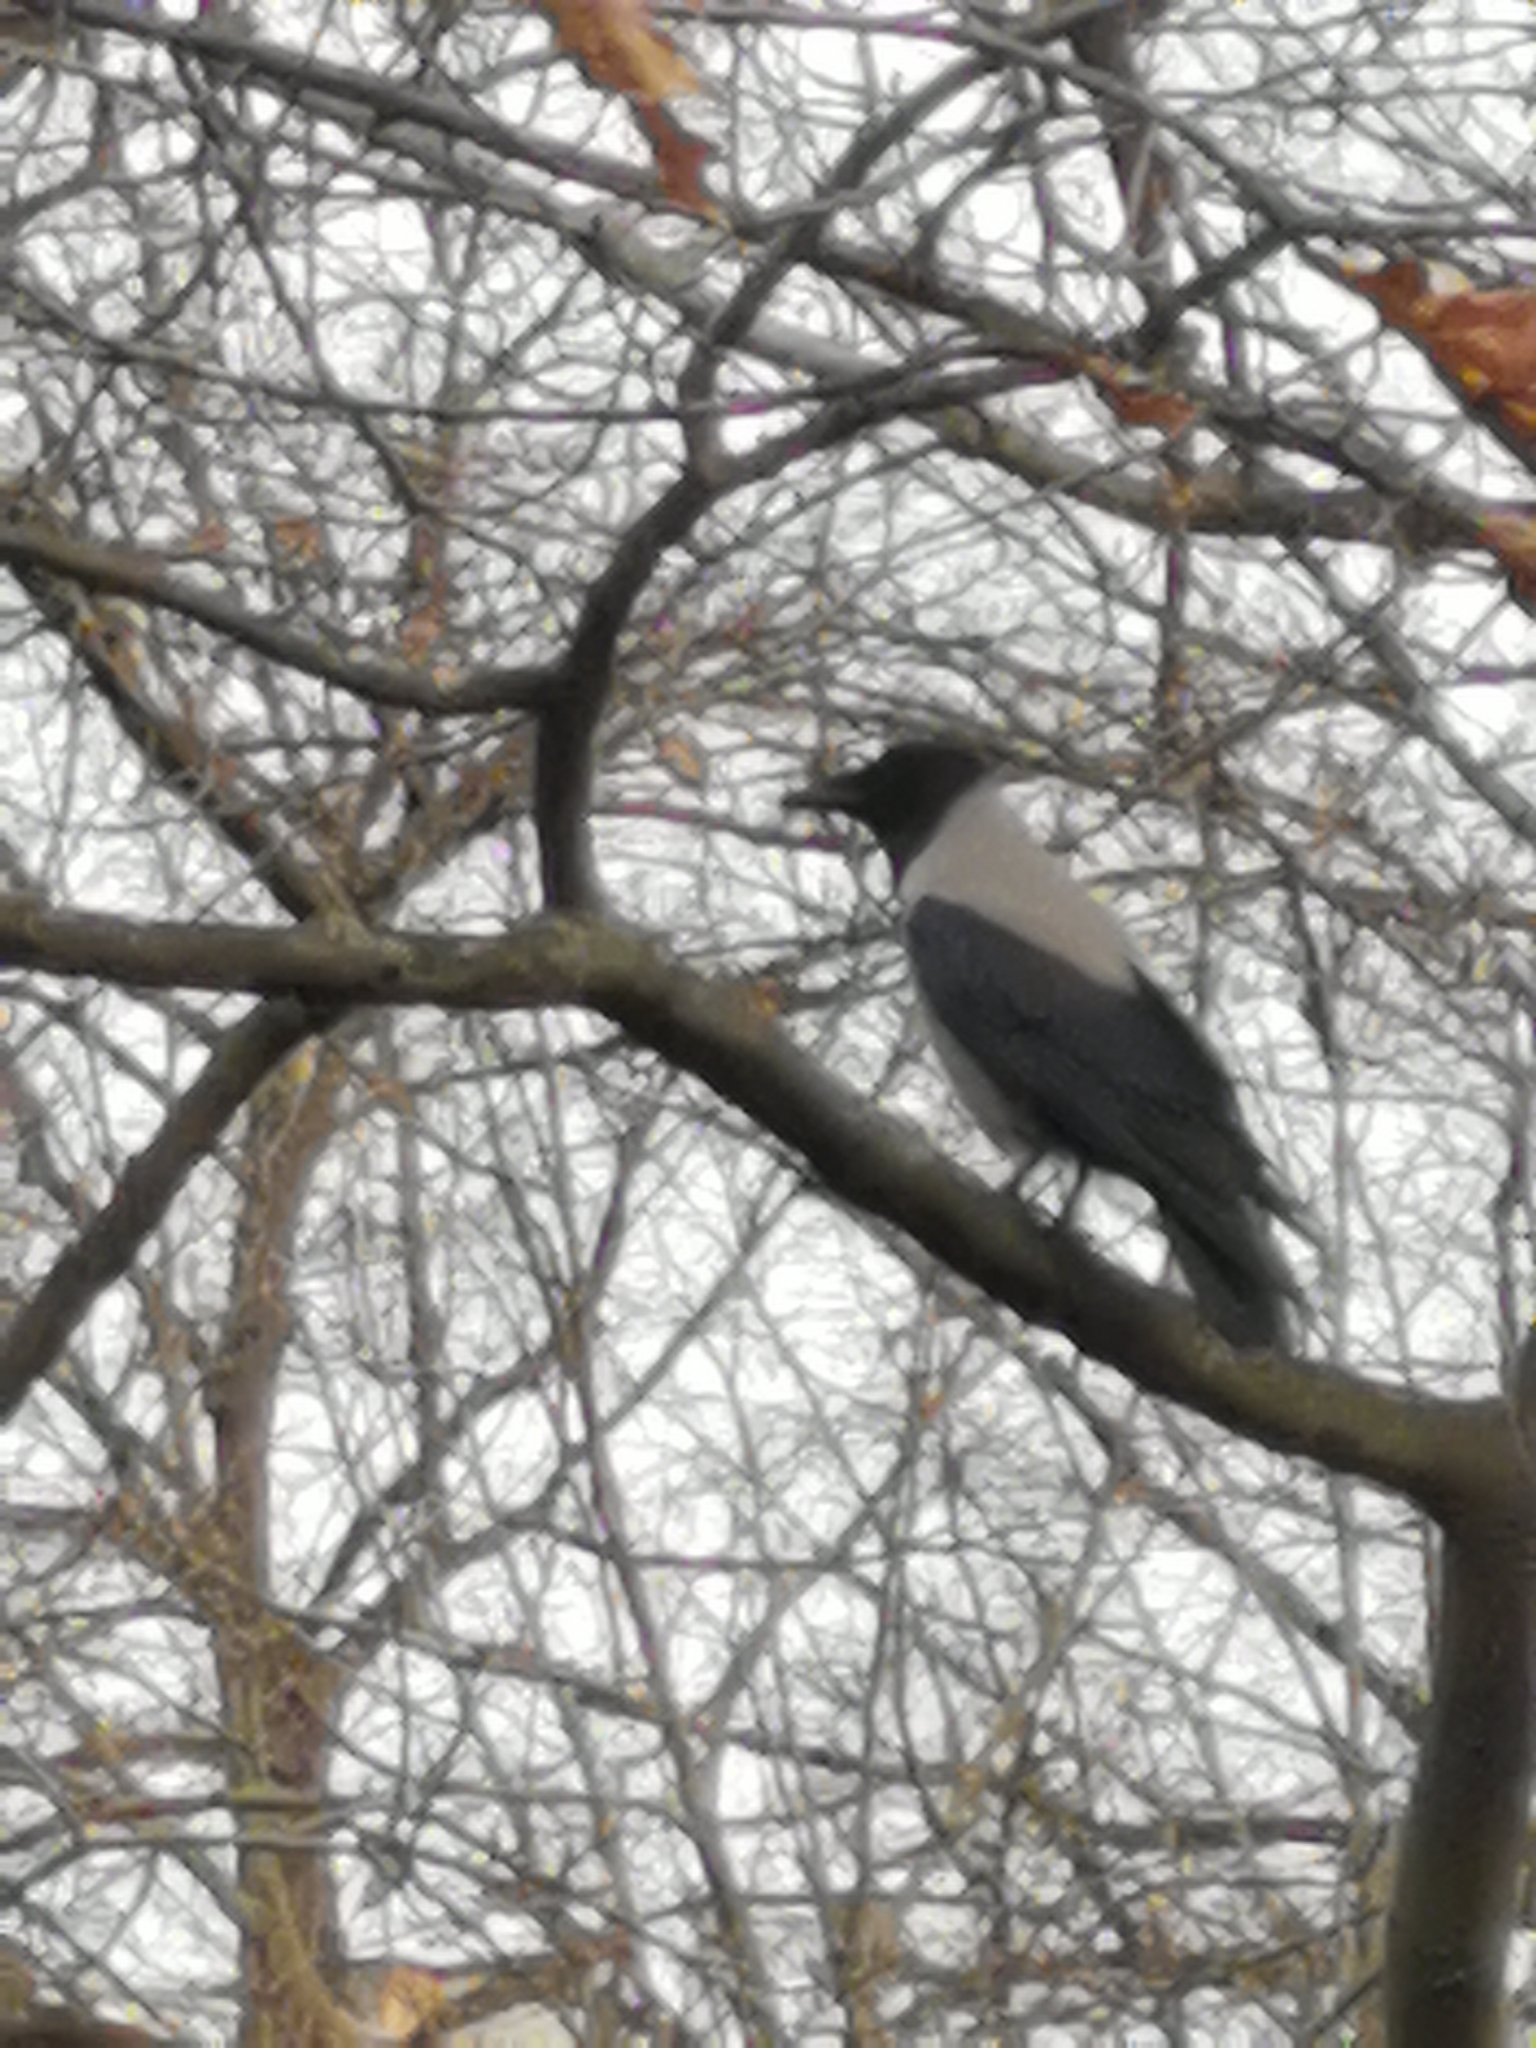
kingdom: Animalia
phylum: Chordata
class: Aves
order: Passeriformes
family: Corvidae
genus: Corvus
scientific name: Corvus cornix
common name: Hooded crow
